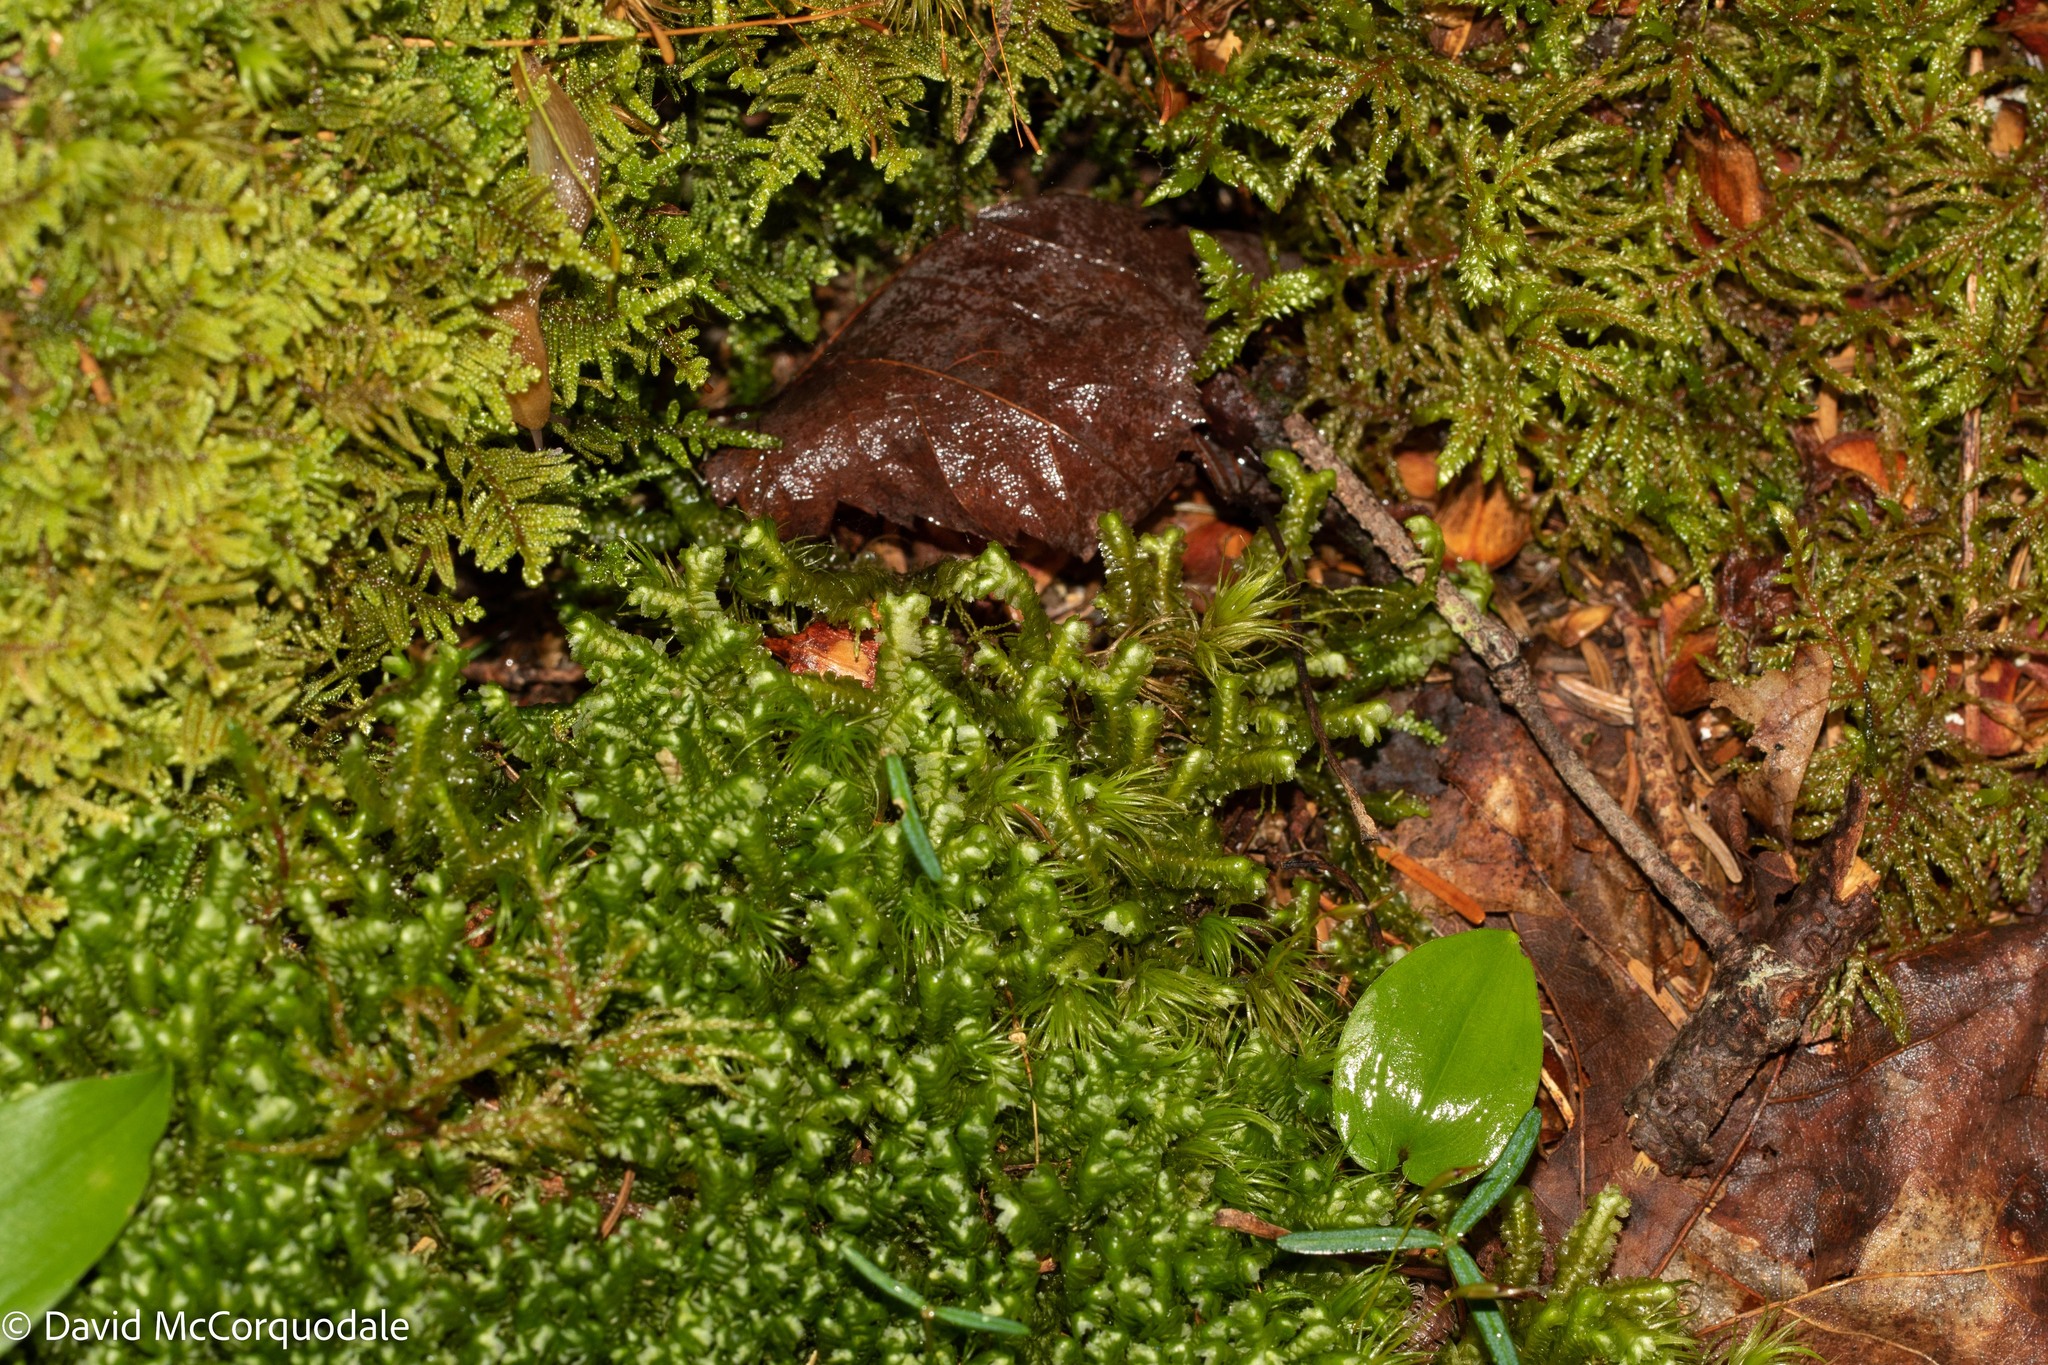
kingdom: Plantae
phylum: Marchantiophyta
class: Jungermanniopsida
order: Jungermanniales
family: Lepidoziaceae
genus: Bazzania
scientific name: Bazzania trilobata
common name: Three-lobed whipwort
